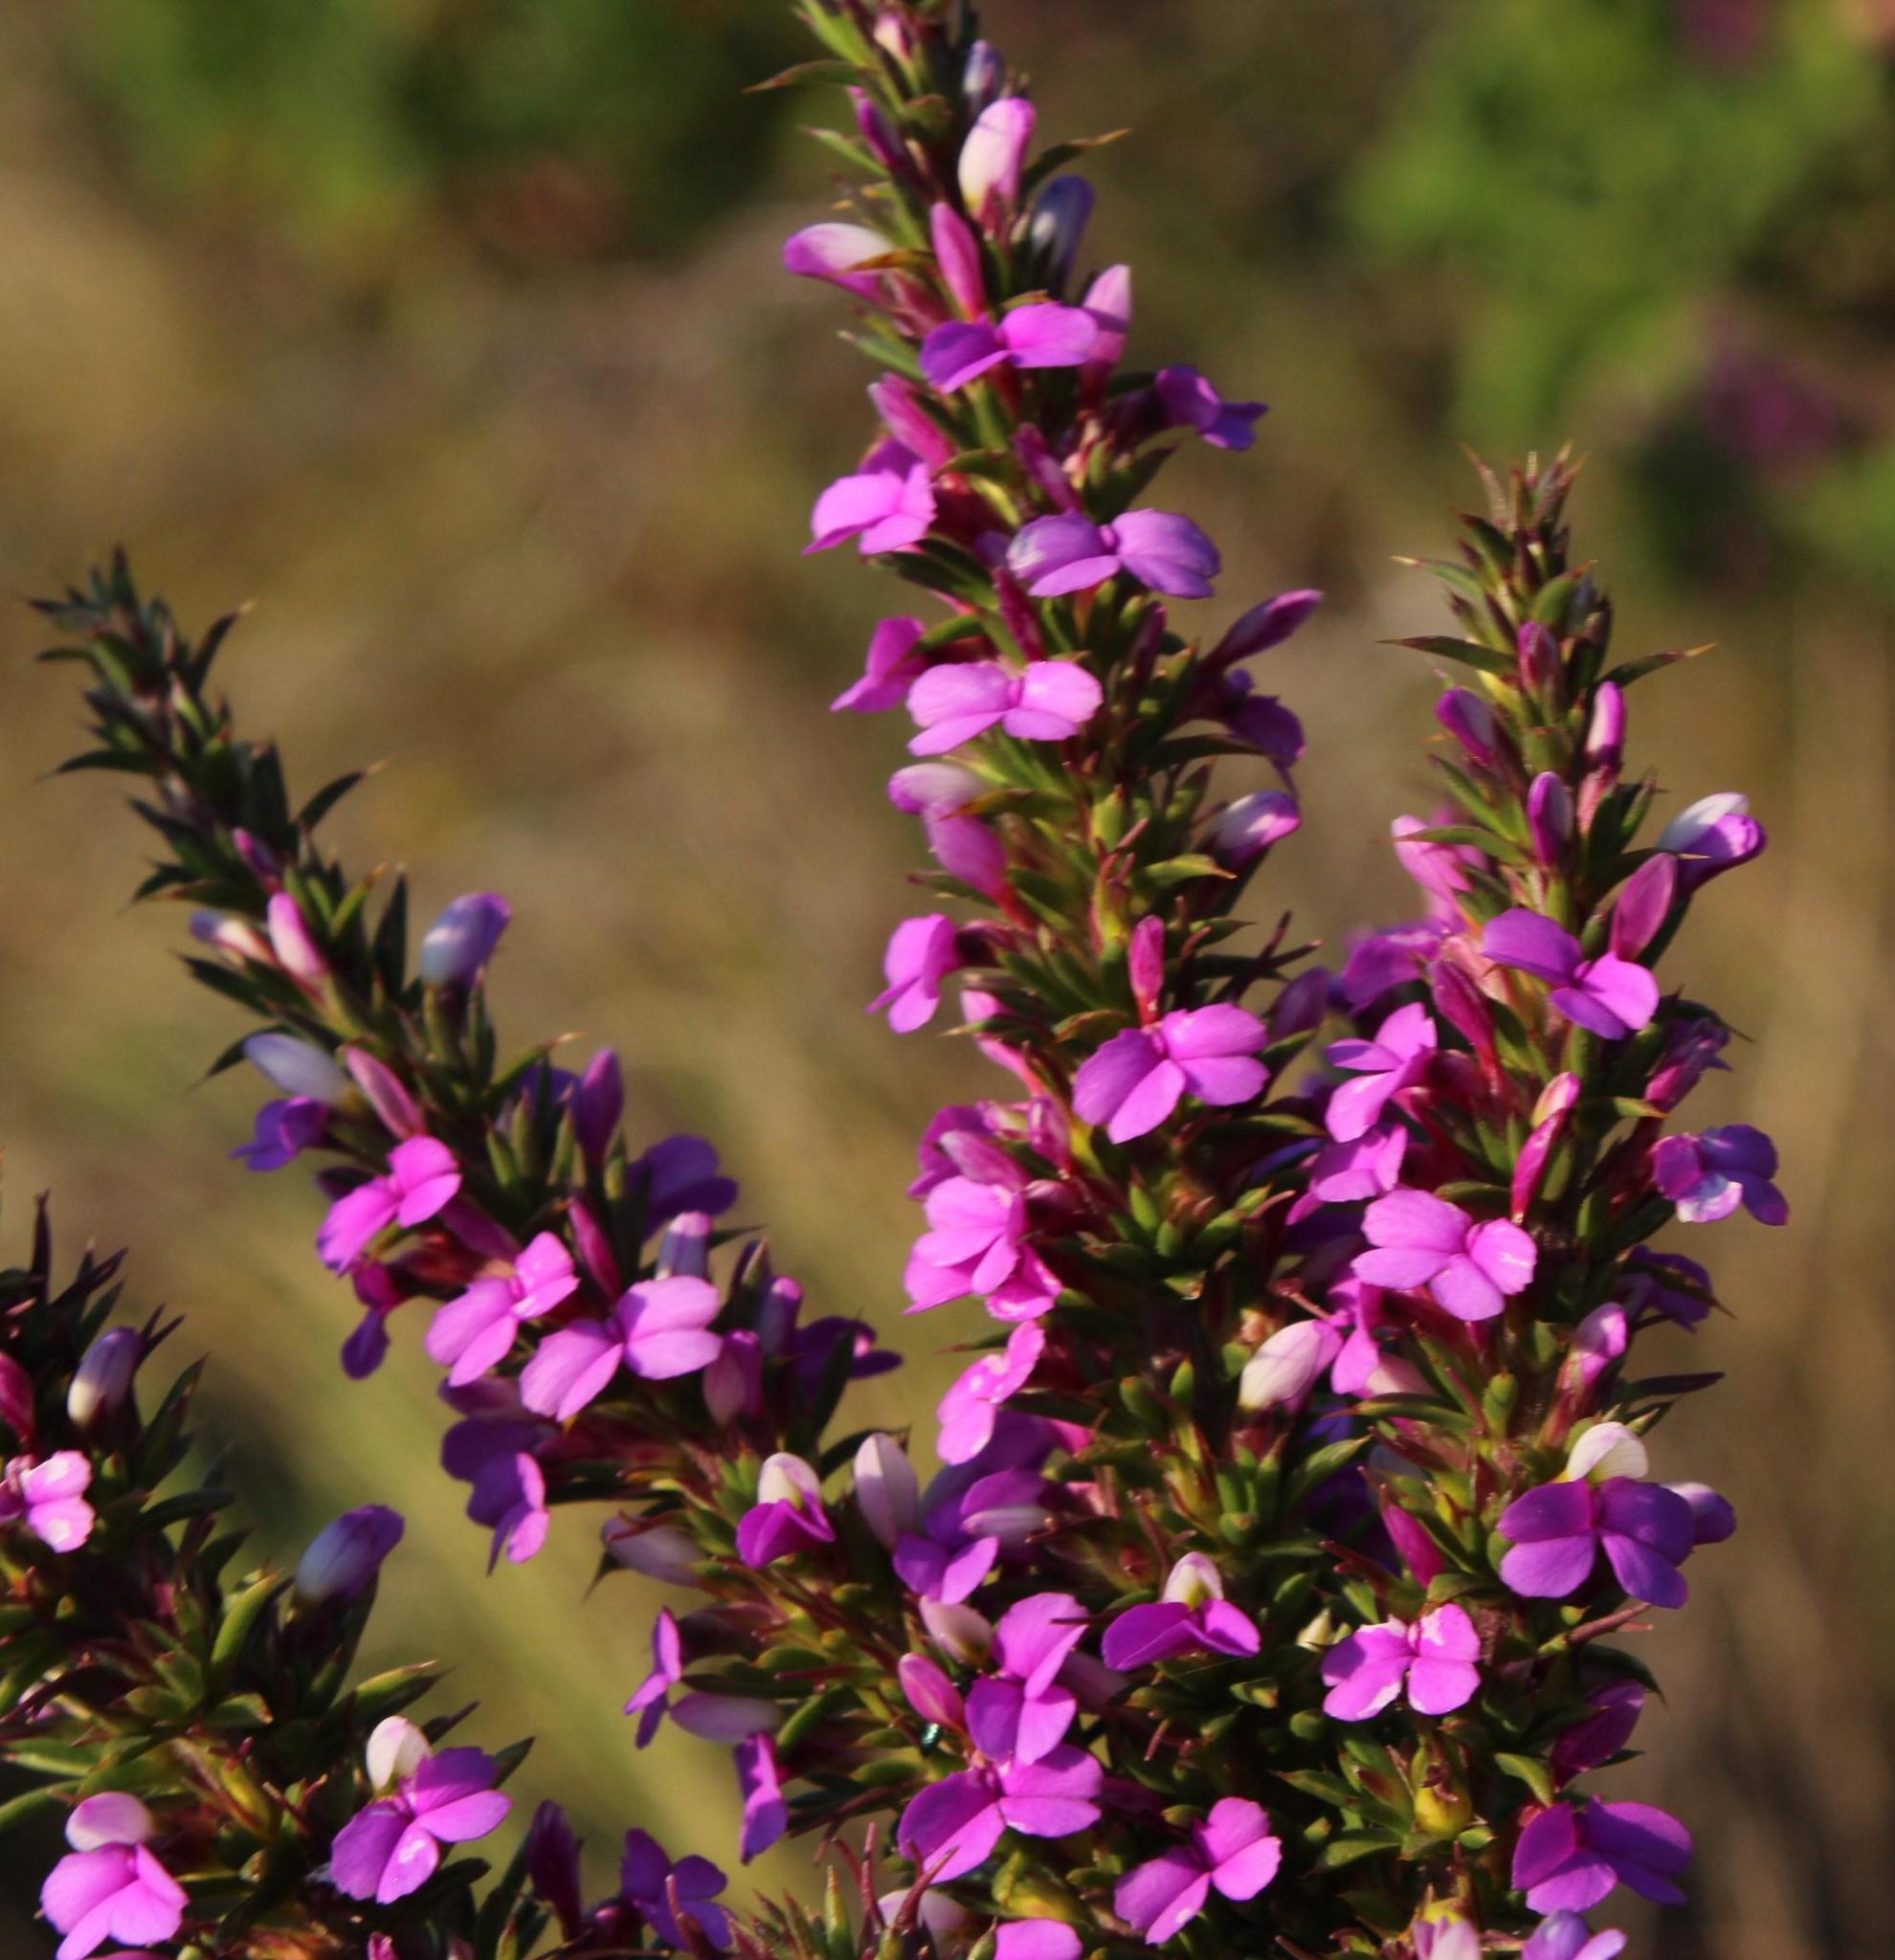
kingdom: Plantae
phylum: Tracheophyta
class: Magnoliopsida
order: Fabales
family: Polygalaceae
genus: Muraltia
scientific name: Muraltia heisteria
